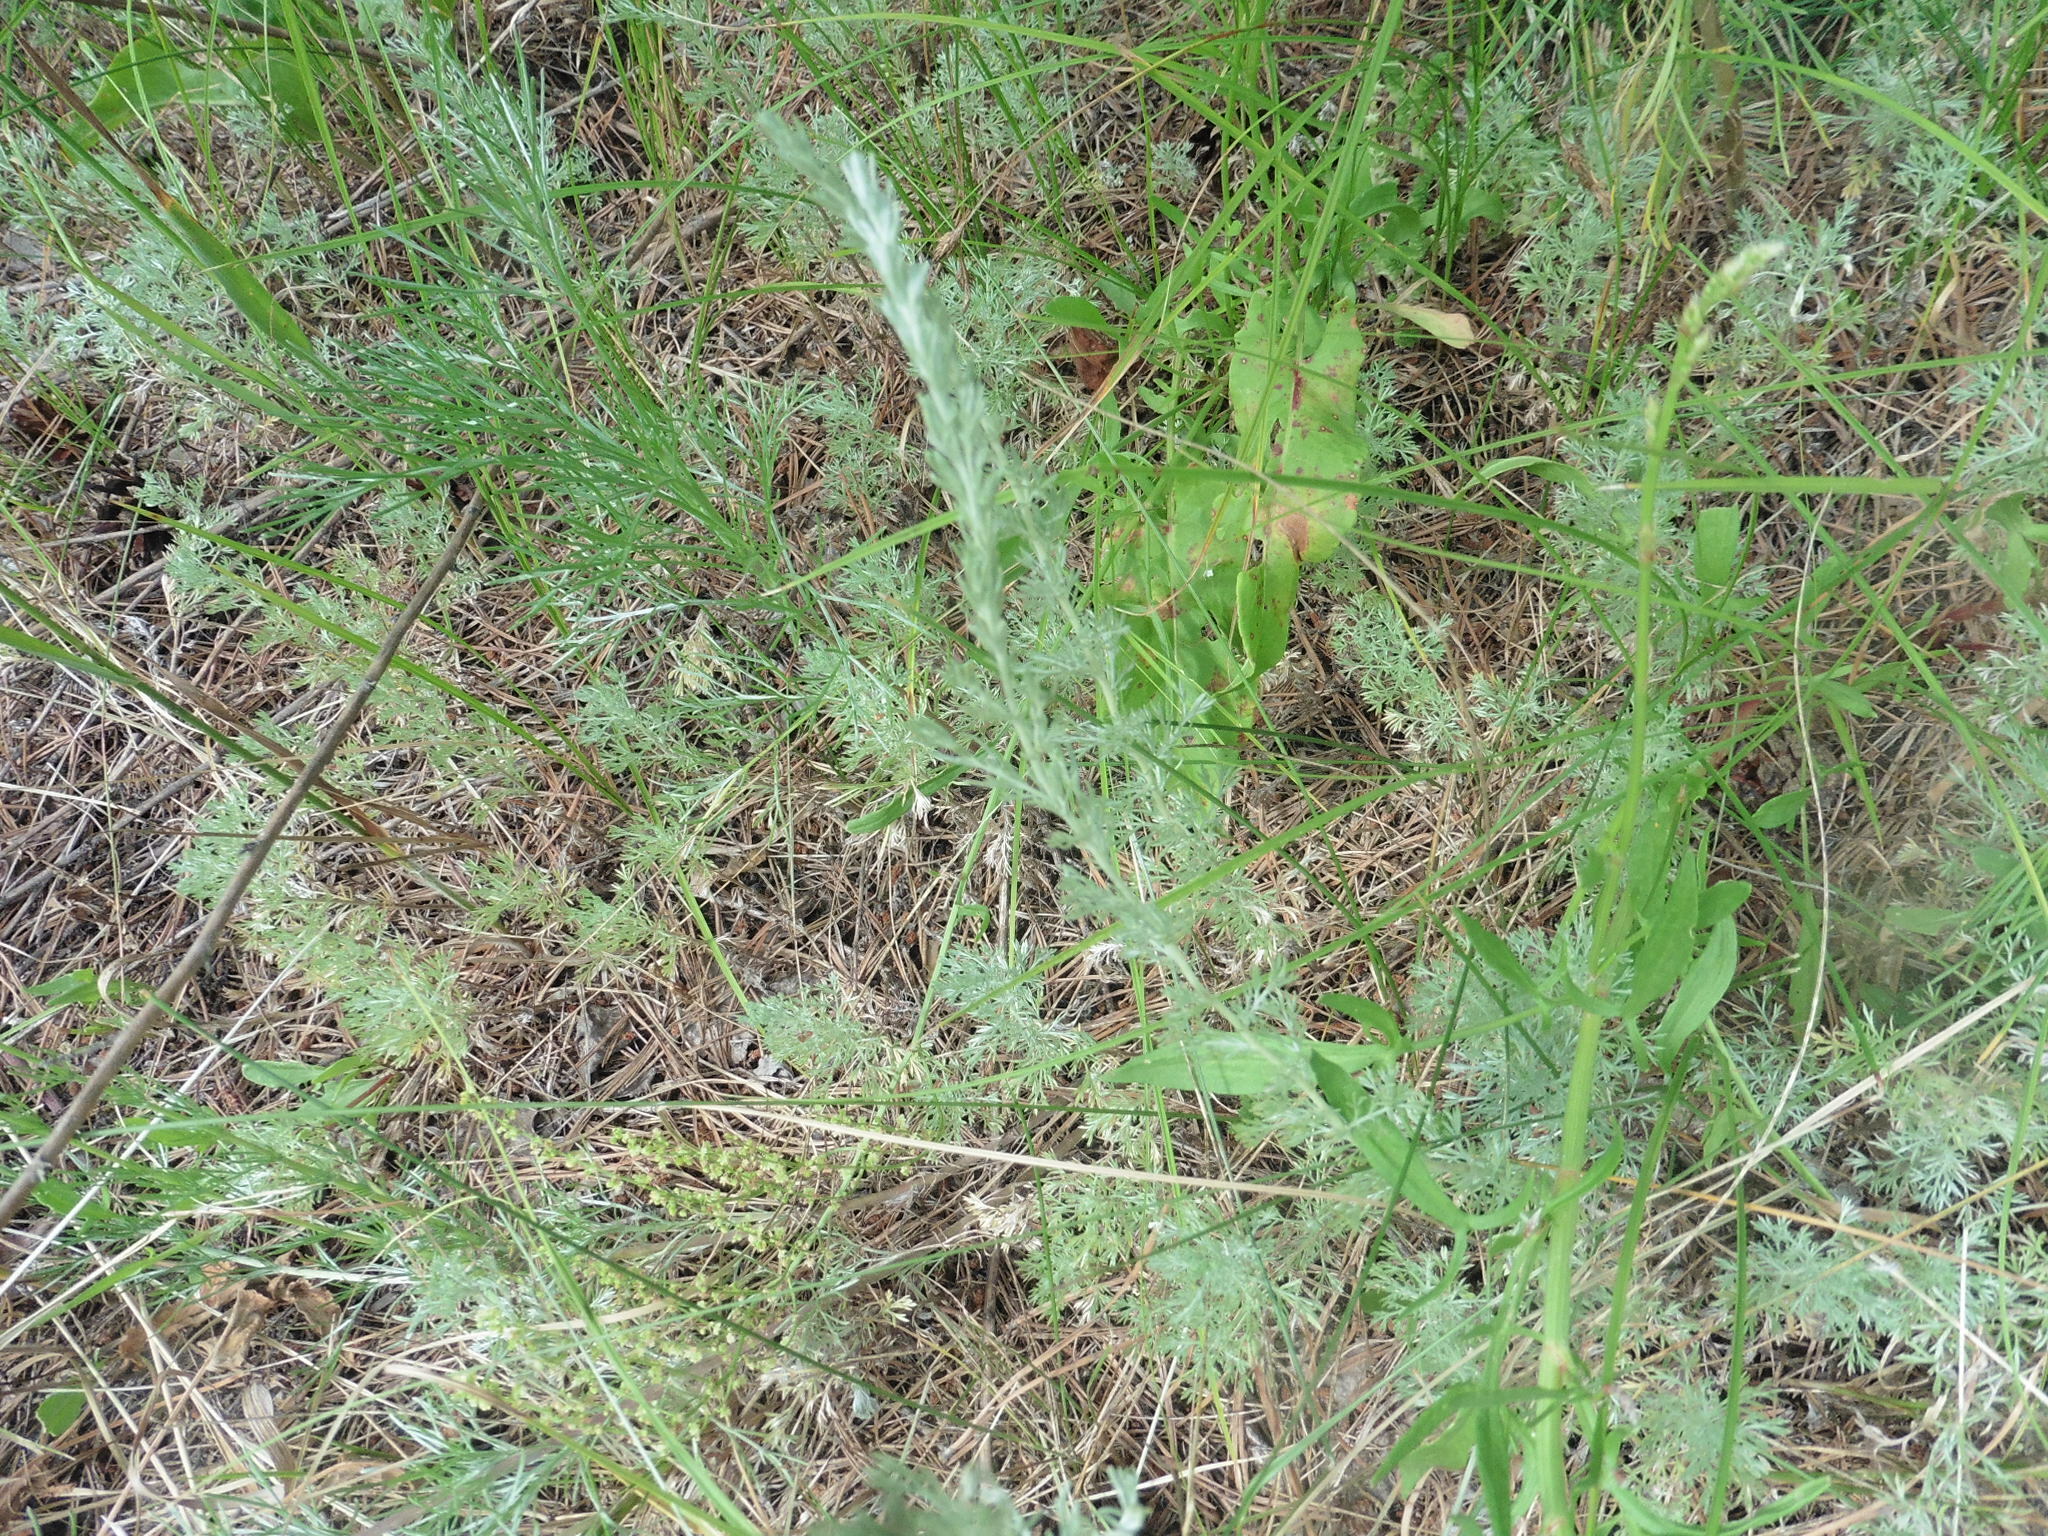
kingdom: Plantae
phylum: Tracheophyta
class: Magnoliopsida
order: Asterales
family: Asteraceae
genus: Artemisia
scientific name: Artemisia austriaca
